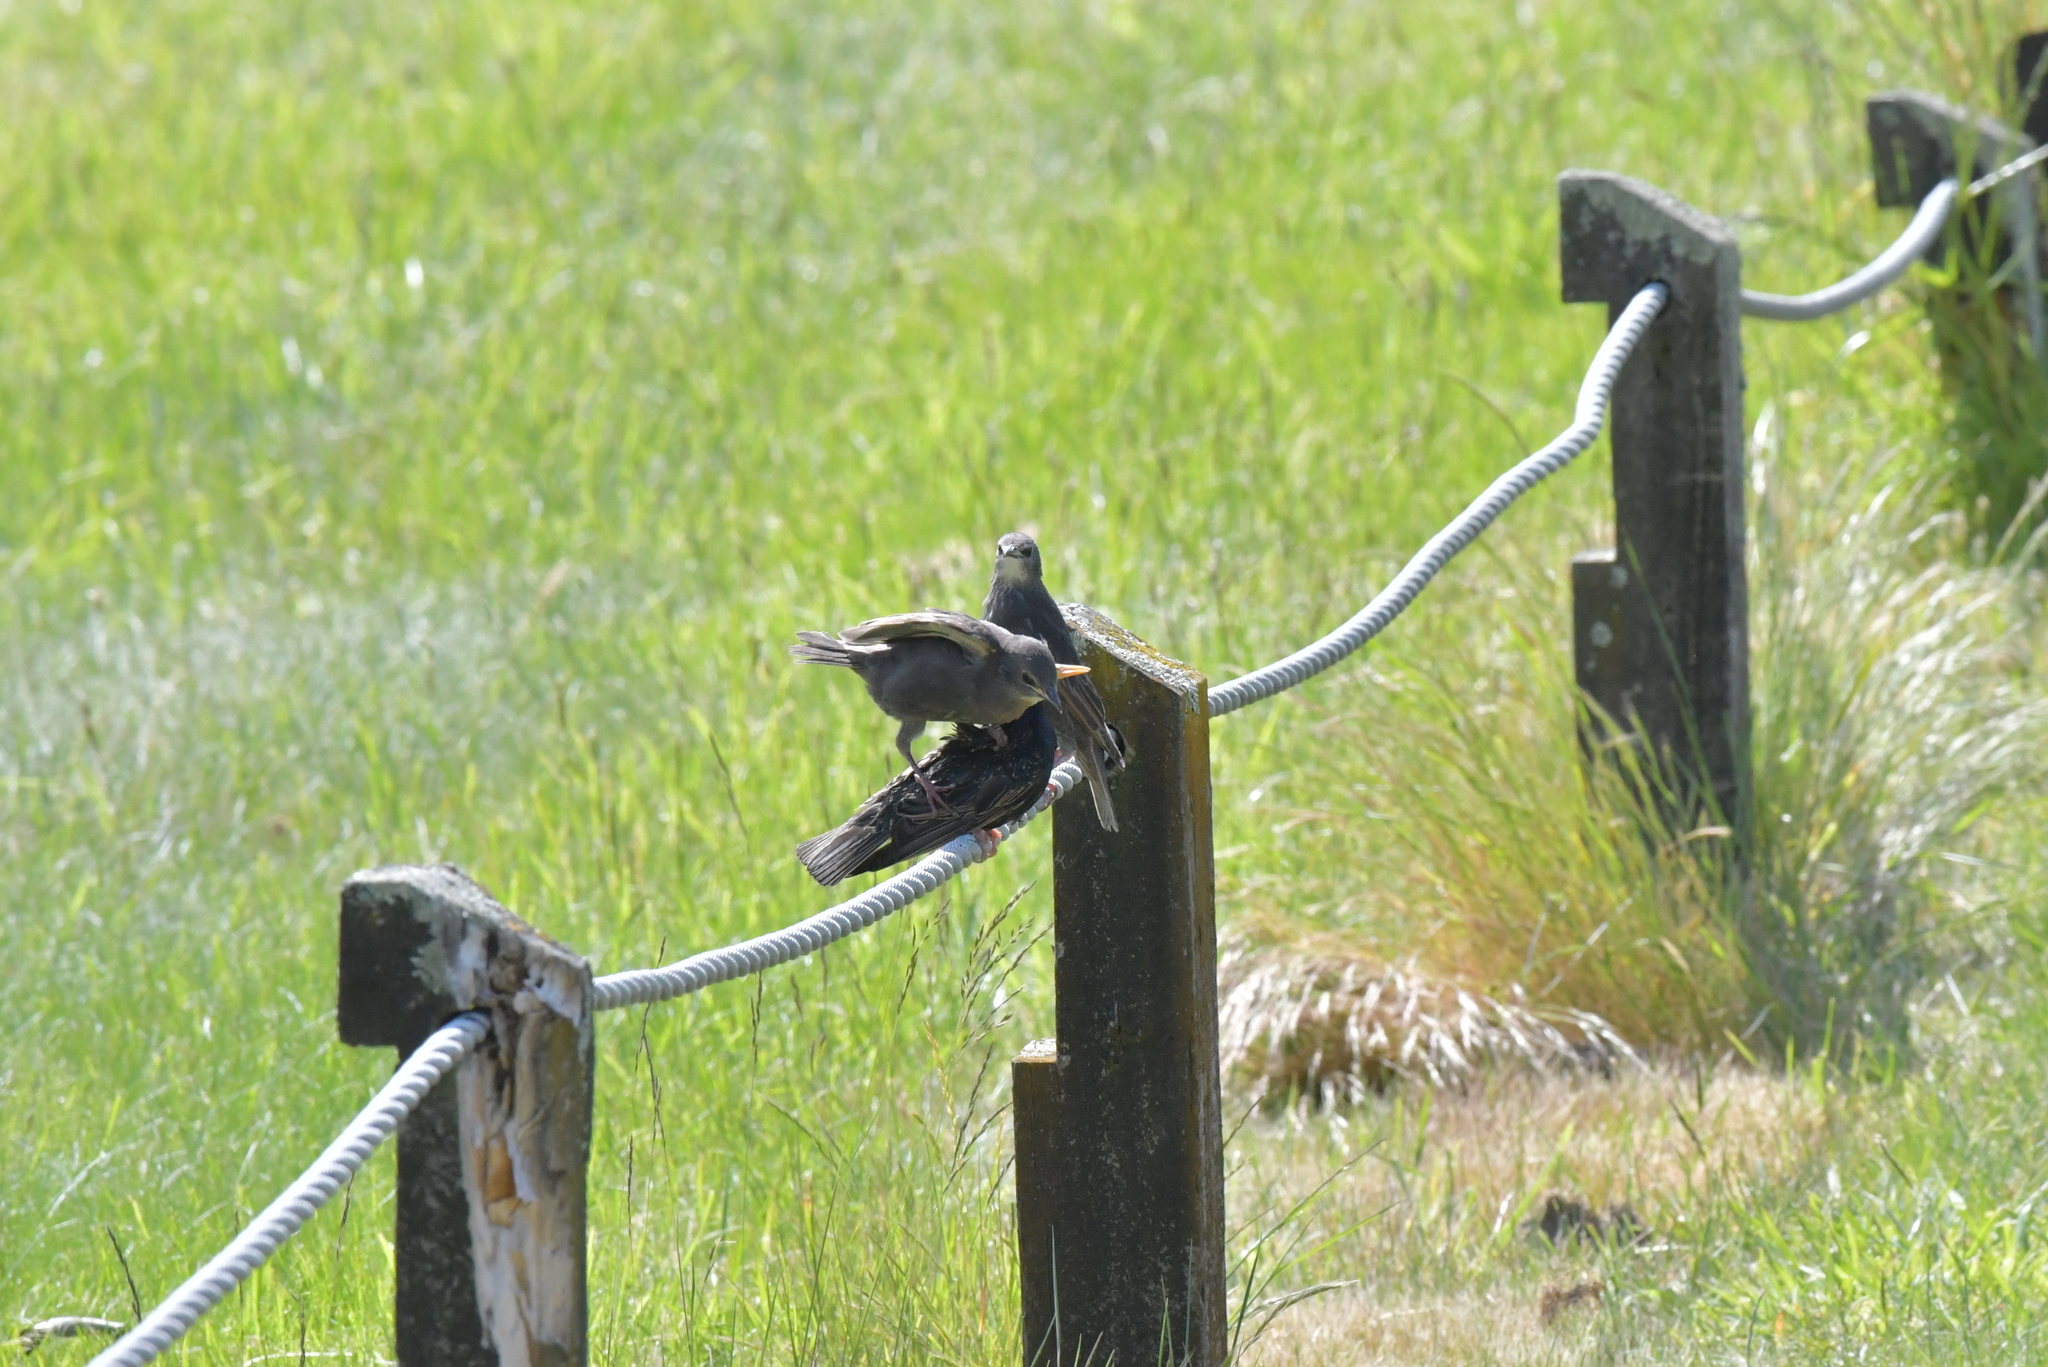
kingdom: Animalia
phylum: Chordata
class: Aves
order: Passeriformes
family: Sturnidae
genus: Sturnus
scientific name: Sturnus vulgaris
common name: Common starling
